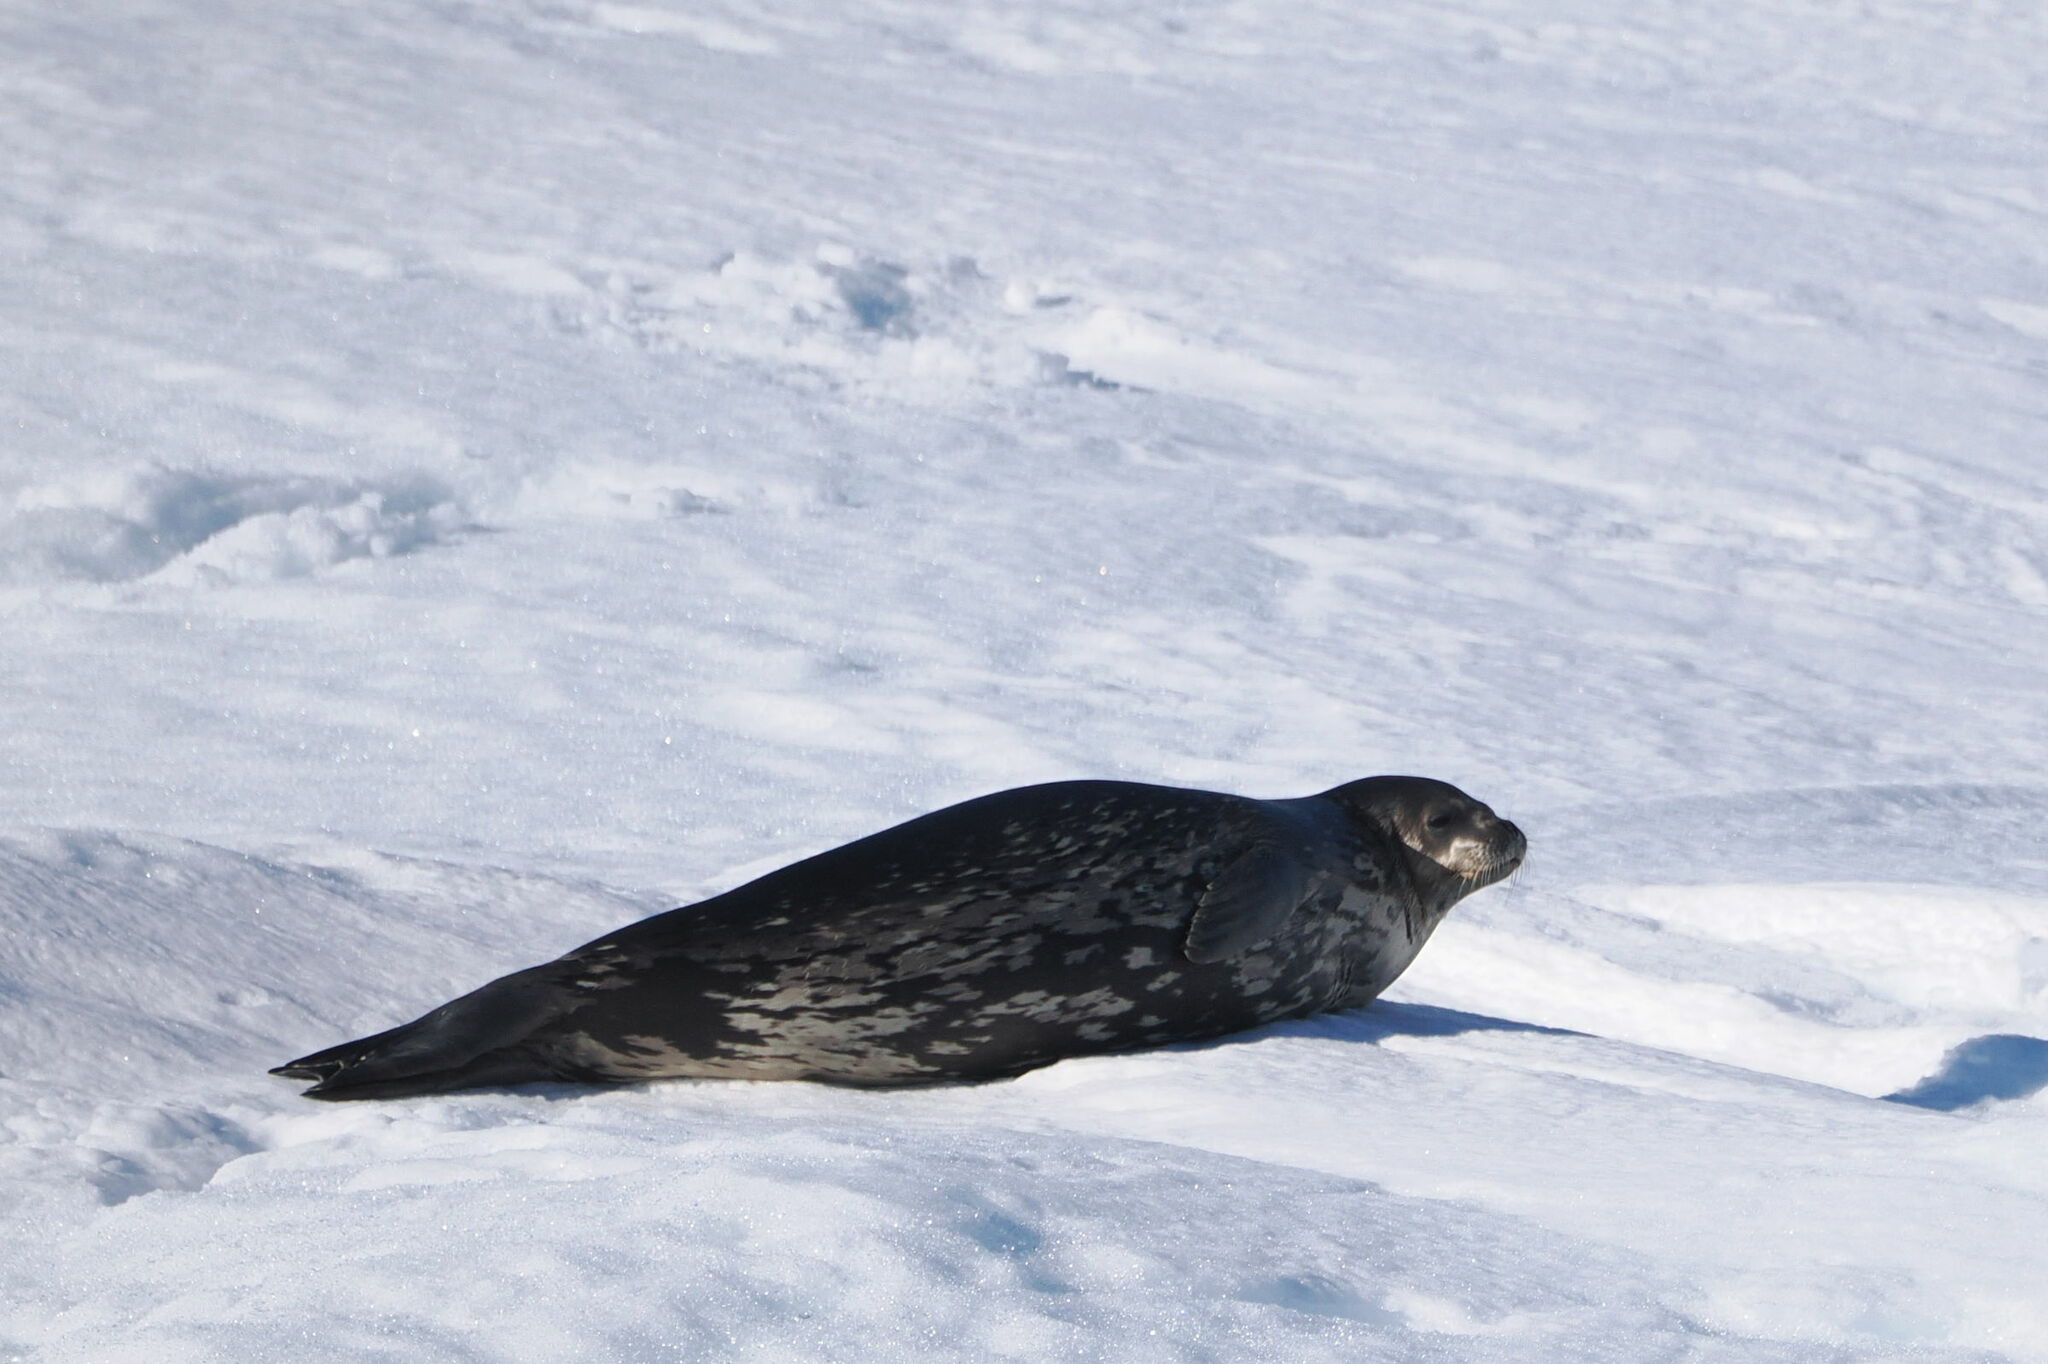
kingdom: Animalia
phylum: Chordata
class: Mammalia
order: Carnivora
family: Phocidae
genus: Leptonychotes
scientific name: Leptonychotes weddellii
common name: Weddell seal
